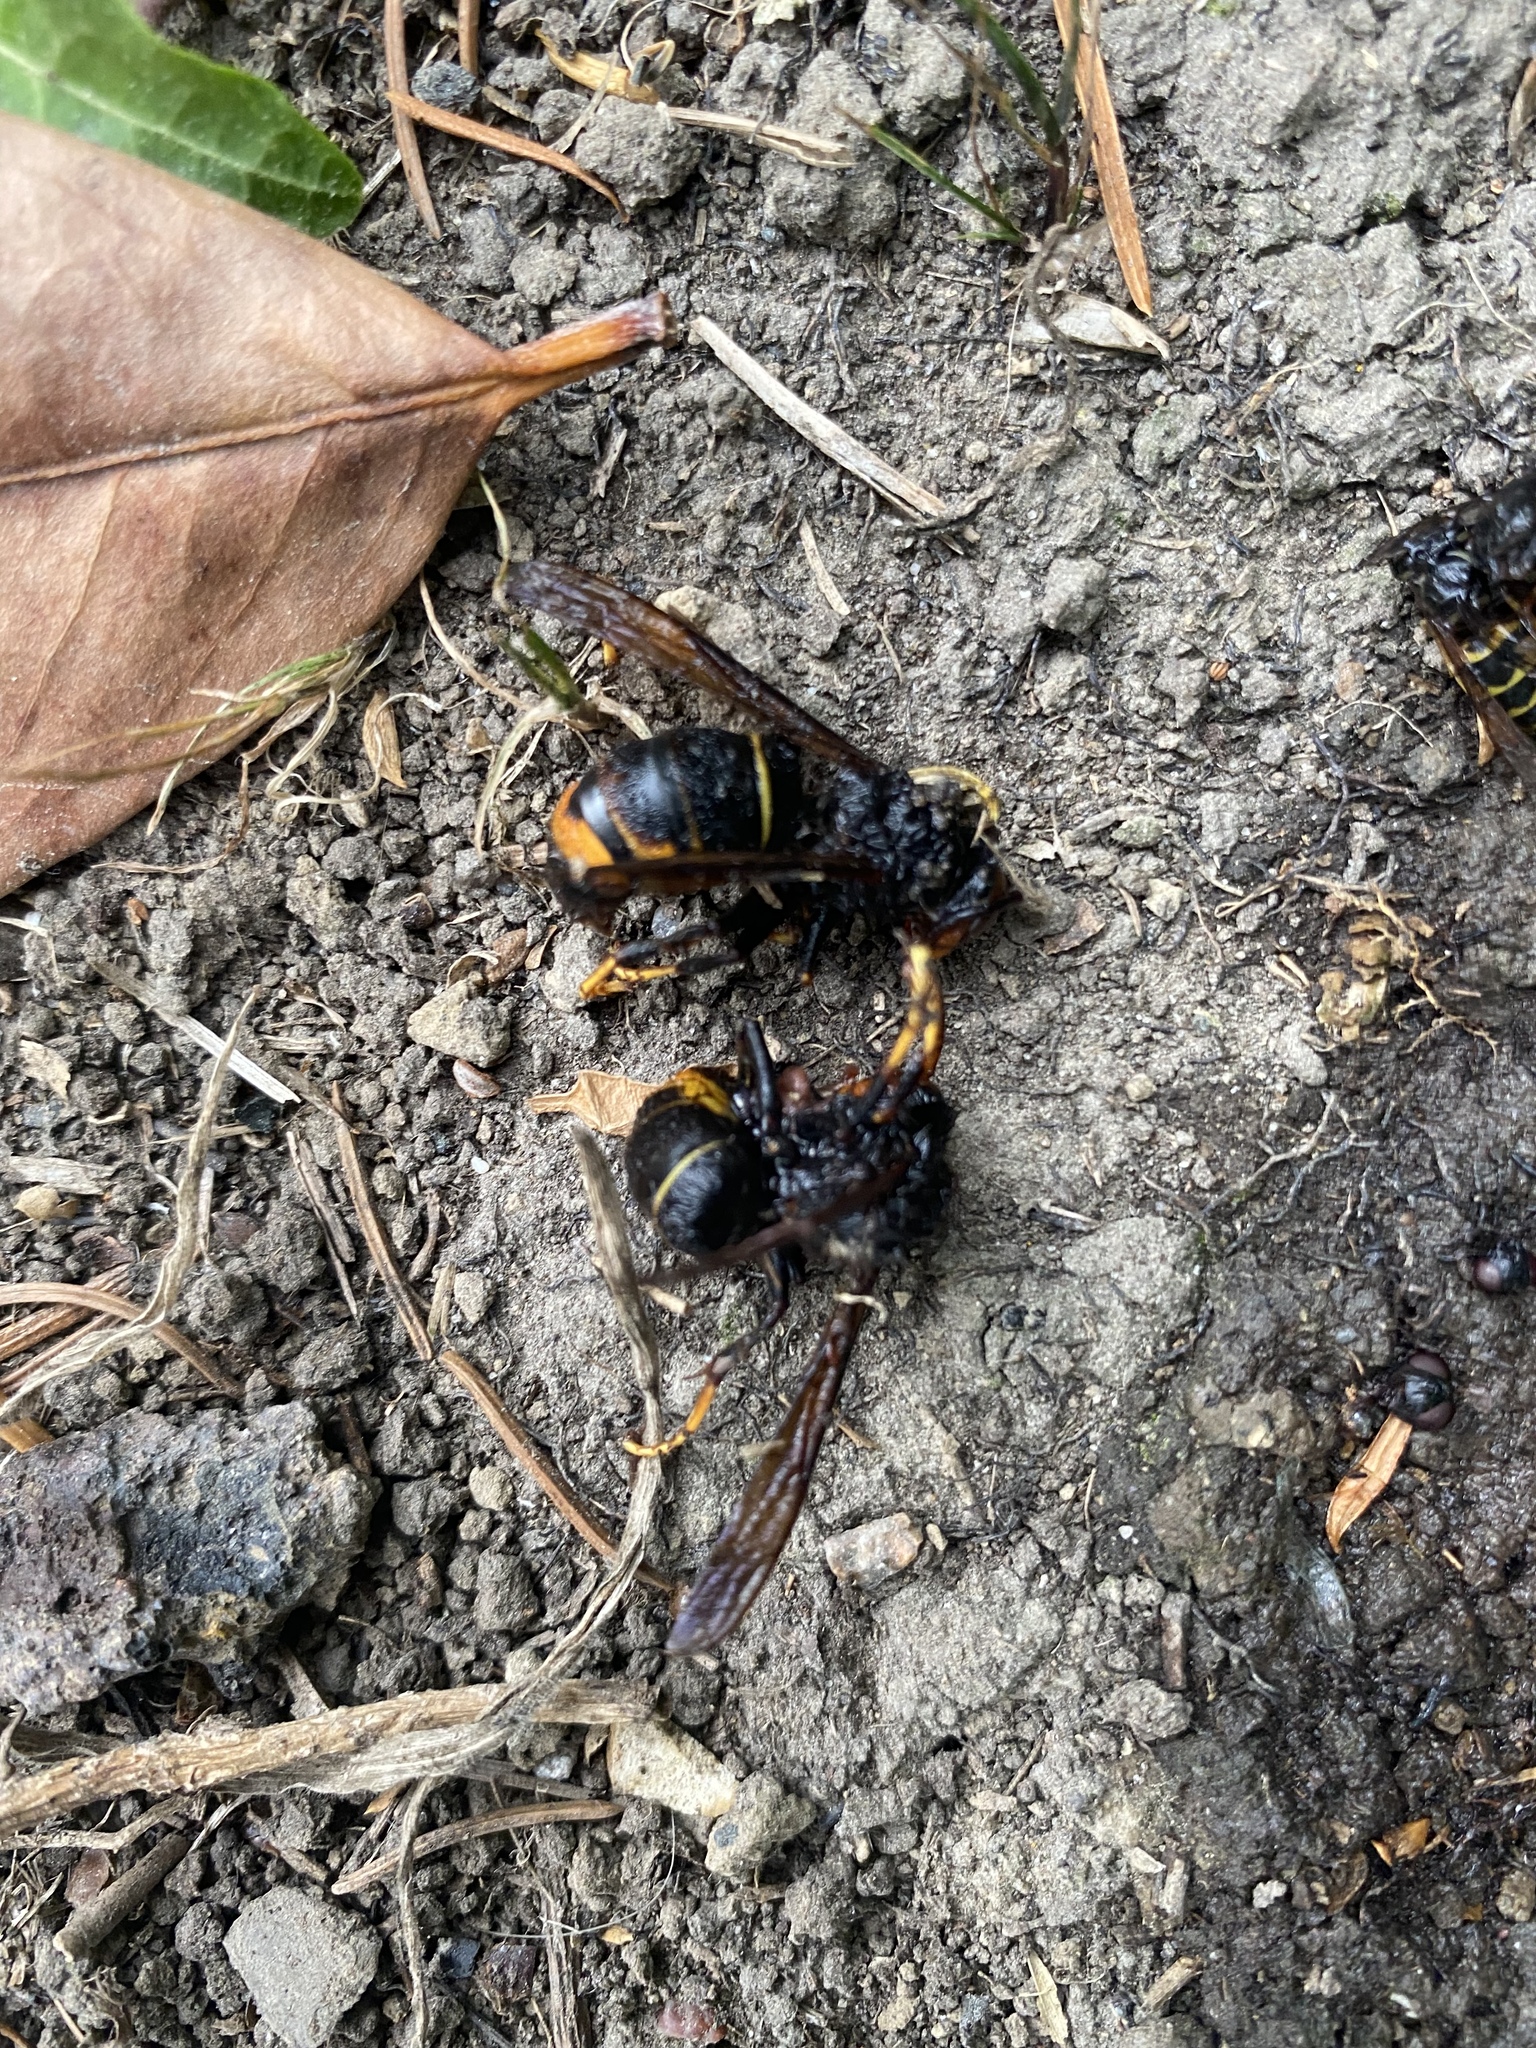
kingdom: Animalia
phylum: Arthropoda
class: Insecta
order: Hymenoptera
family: Vespidae
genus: Vespa
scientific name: Vespa velutina
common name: Asian hornet
